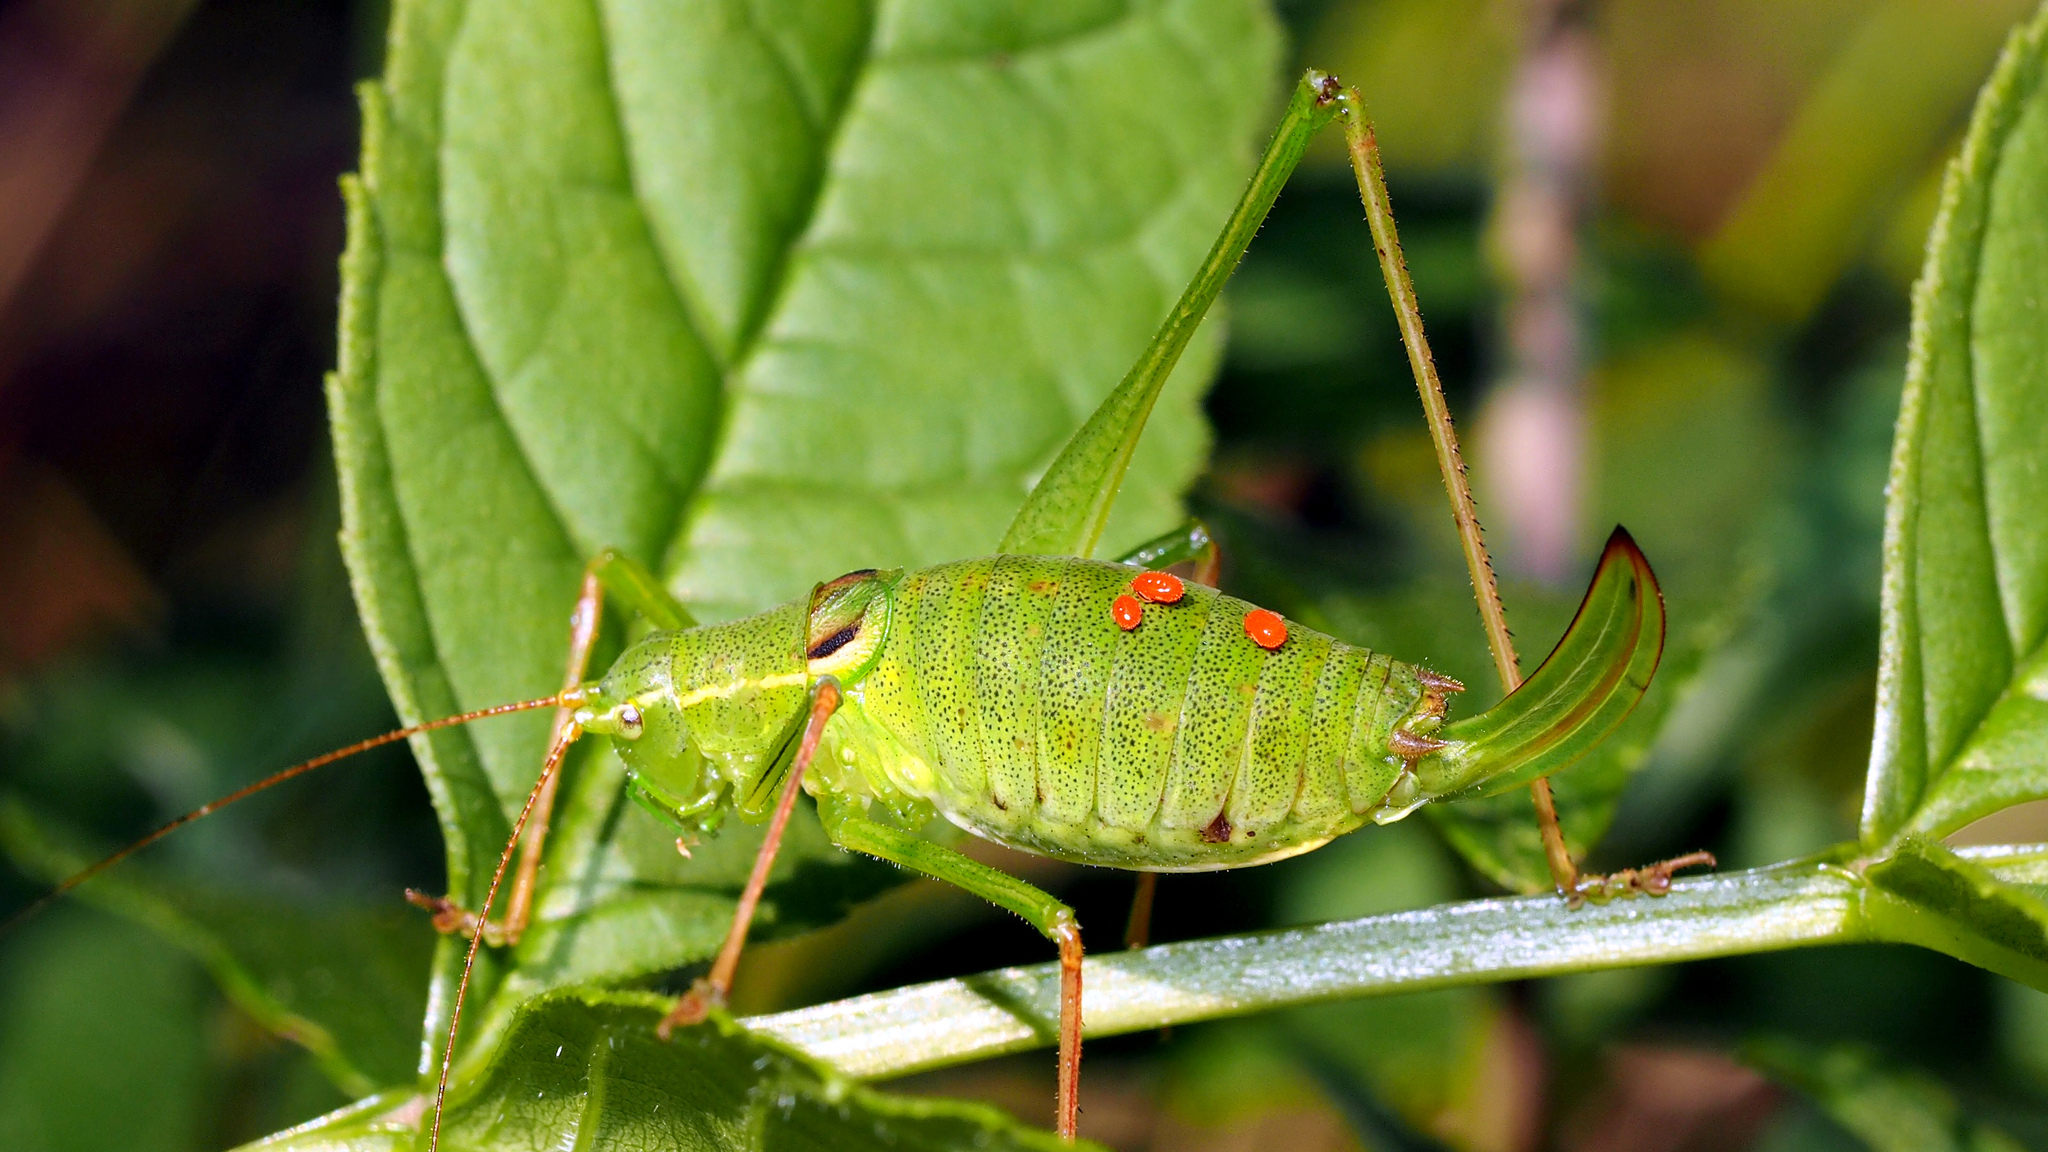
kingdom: Animalia
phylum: Arthropoda
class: Insecta
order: Orthoptera
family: Tettigoniidae
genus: Leptophyes
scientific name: Leptophyes laticauda
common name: Long-tailed speckled bush-cricket
